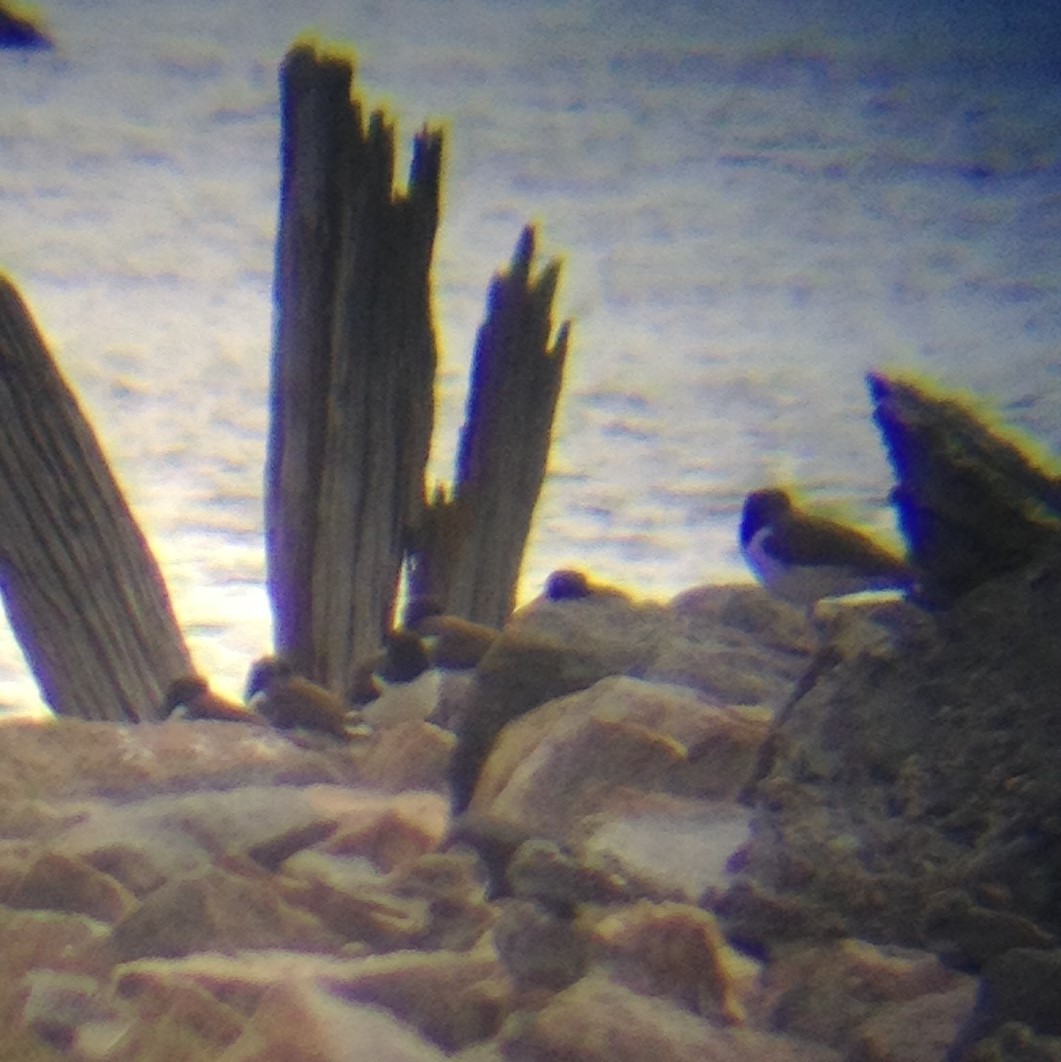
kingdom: Animalia
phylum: Chordata
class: Aves
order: Charadriiformes
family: Haematopodidae
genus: Haematopus
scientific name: Haematopus palliatus
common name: American oystercatcher
